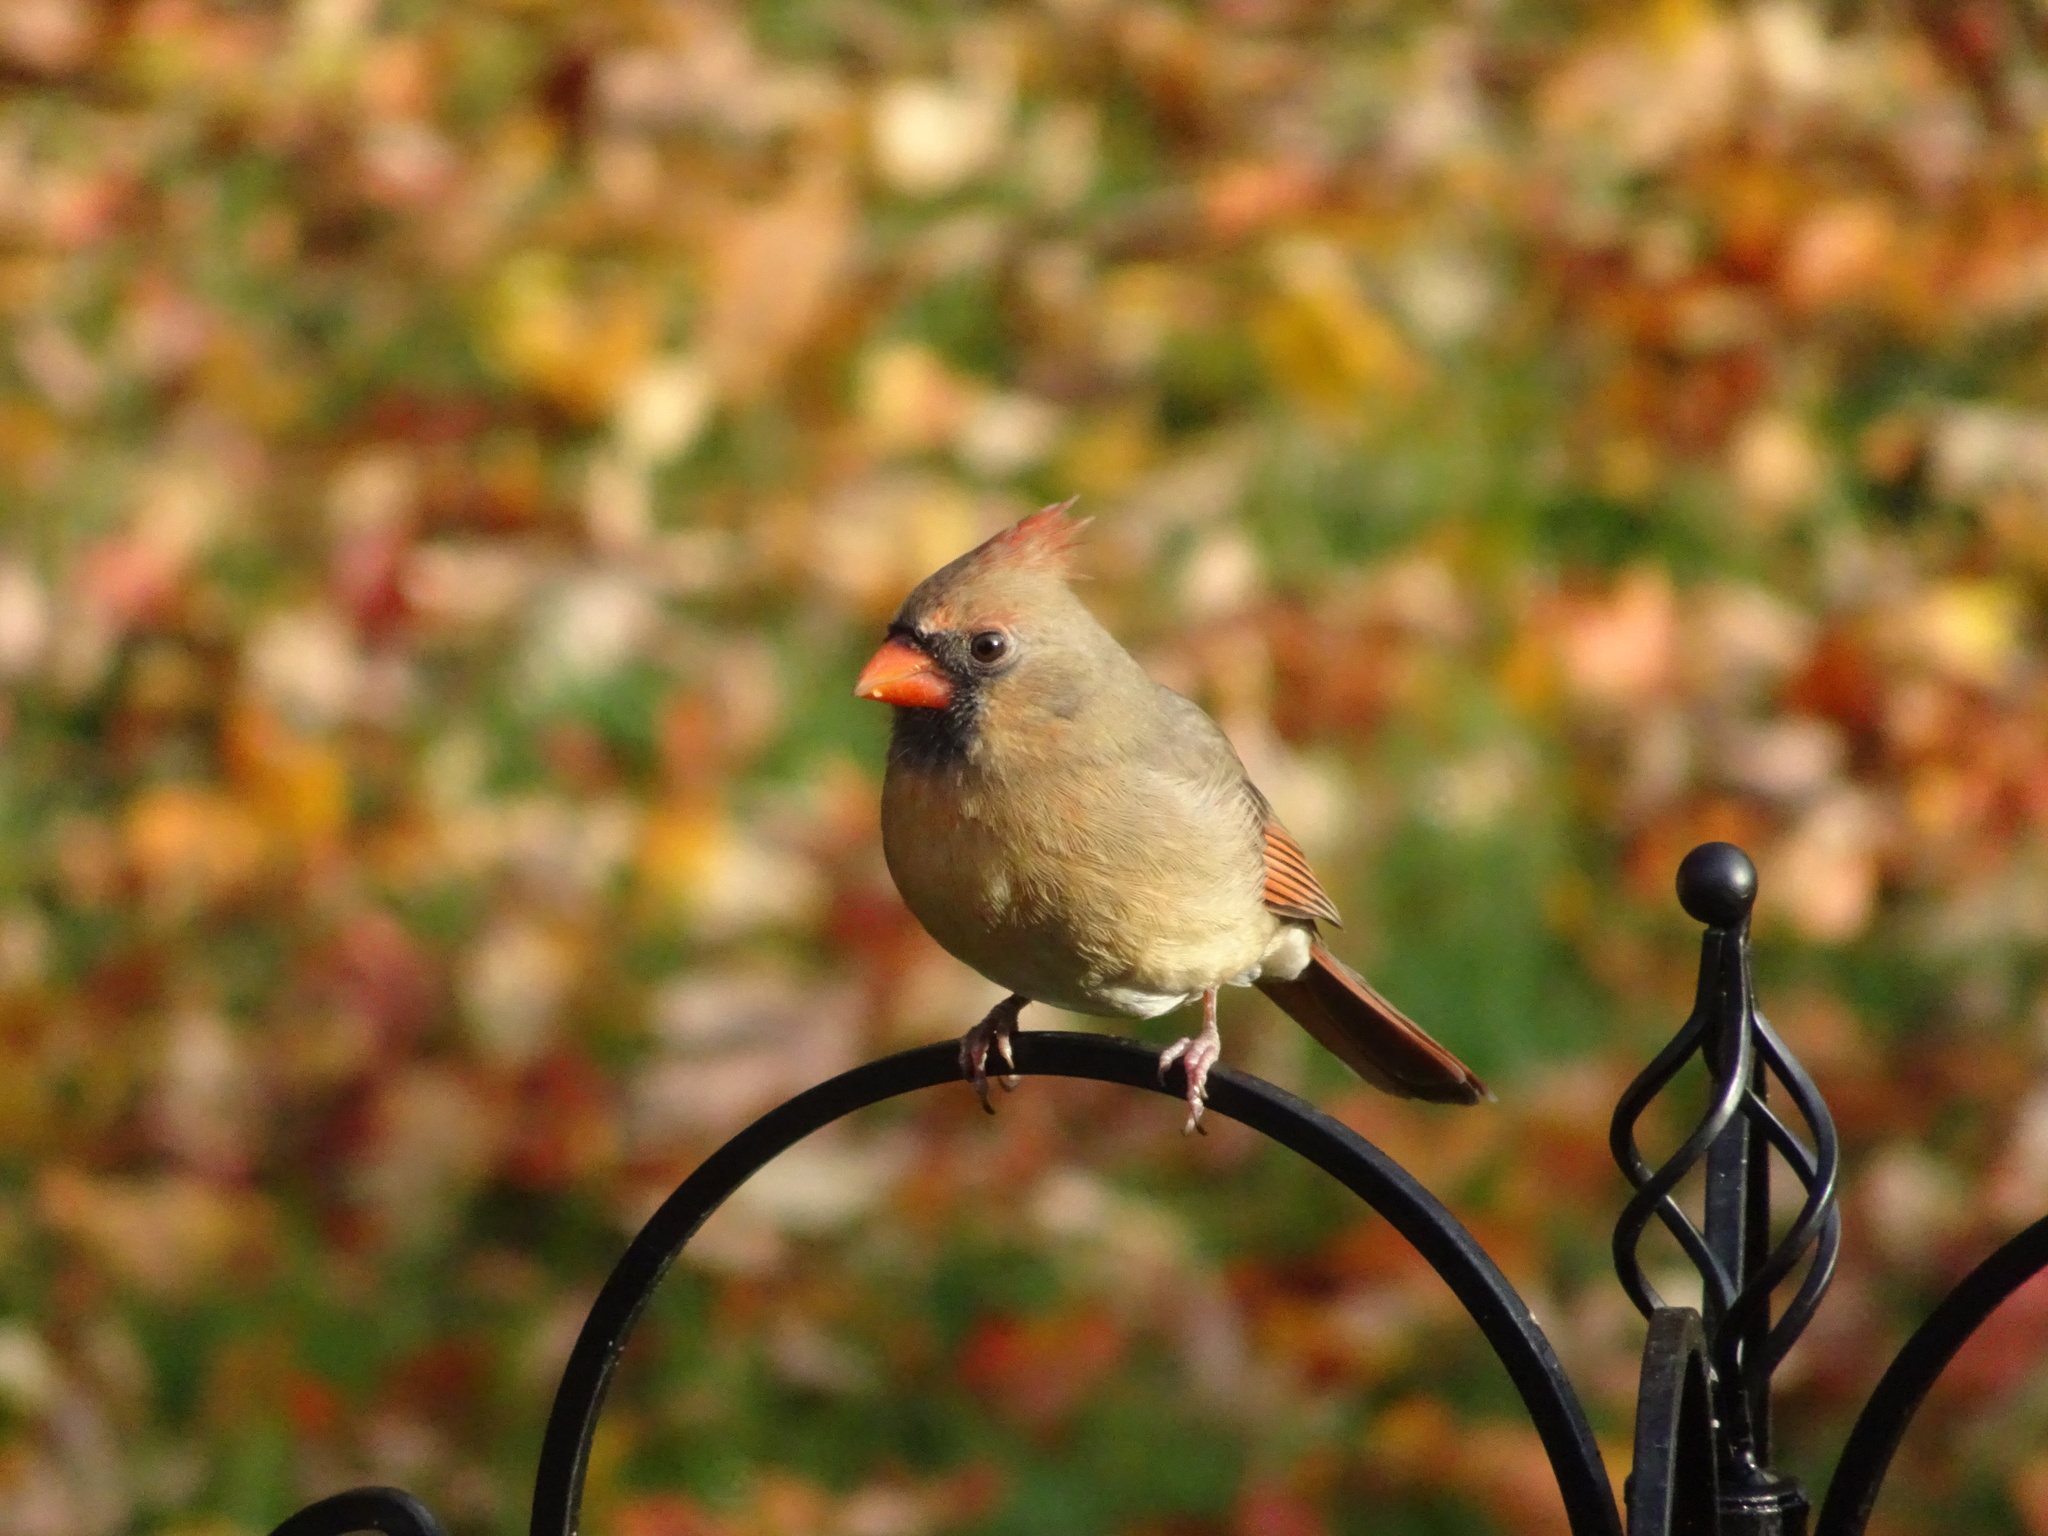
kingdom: Animalia
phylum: Chordata
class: Aves
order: Passeriformes
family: Cardinalidae
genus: Cardinalis
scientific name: Cardinalis cardinalis
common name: Northern cardinal
